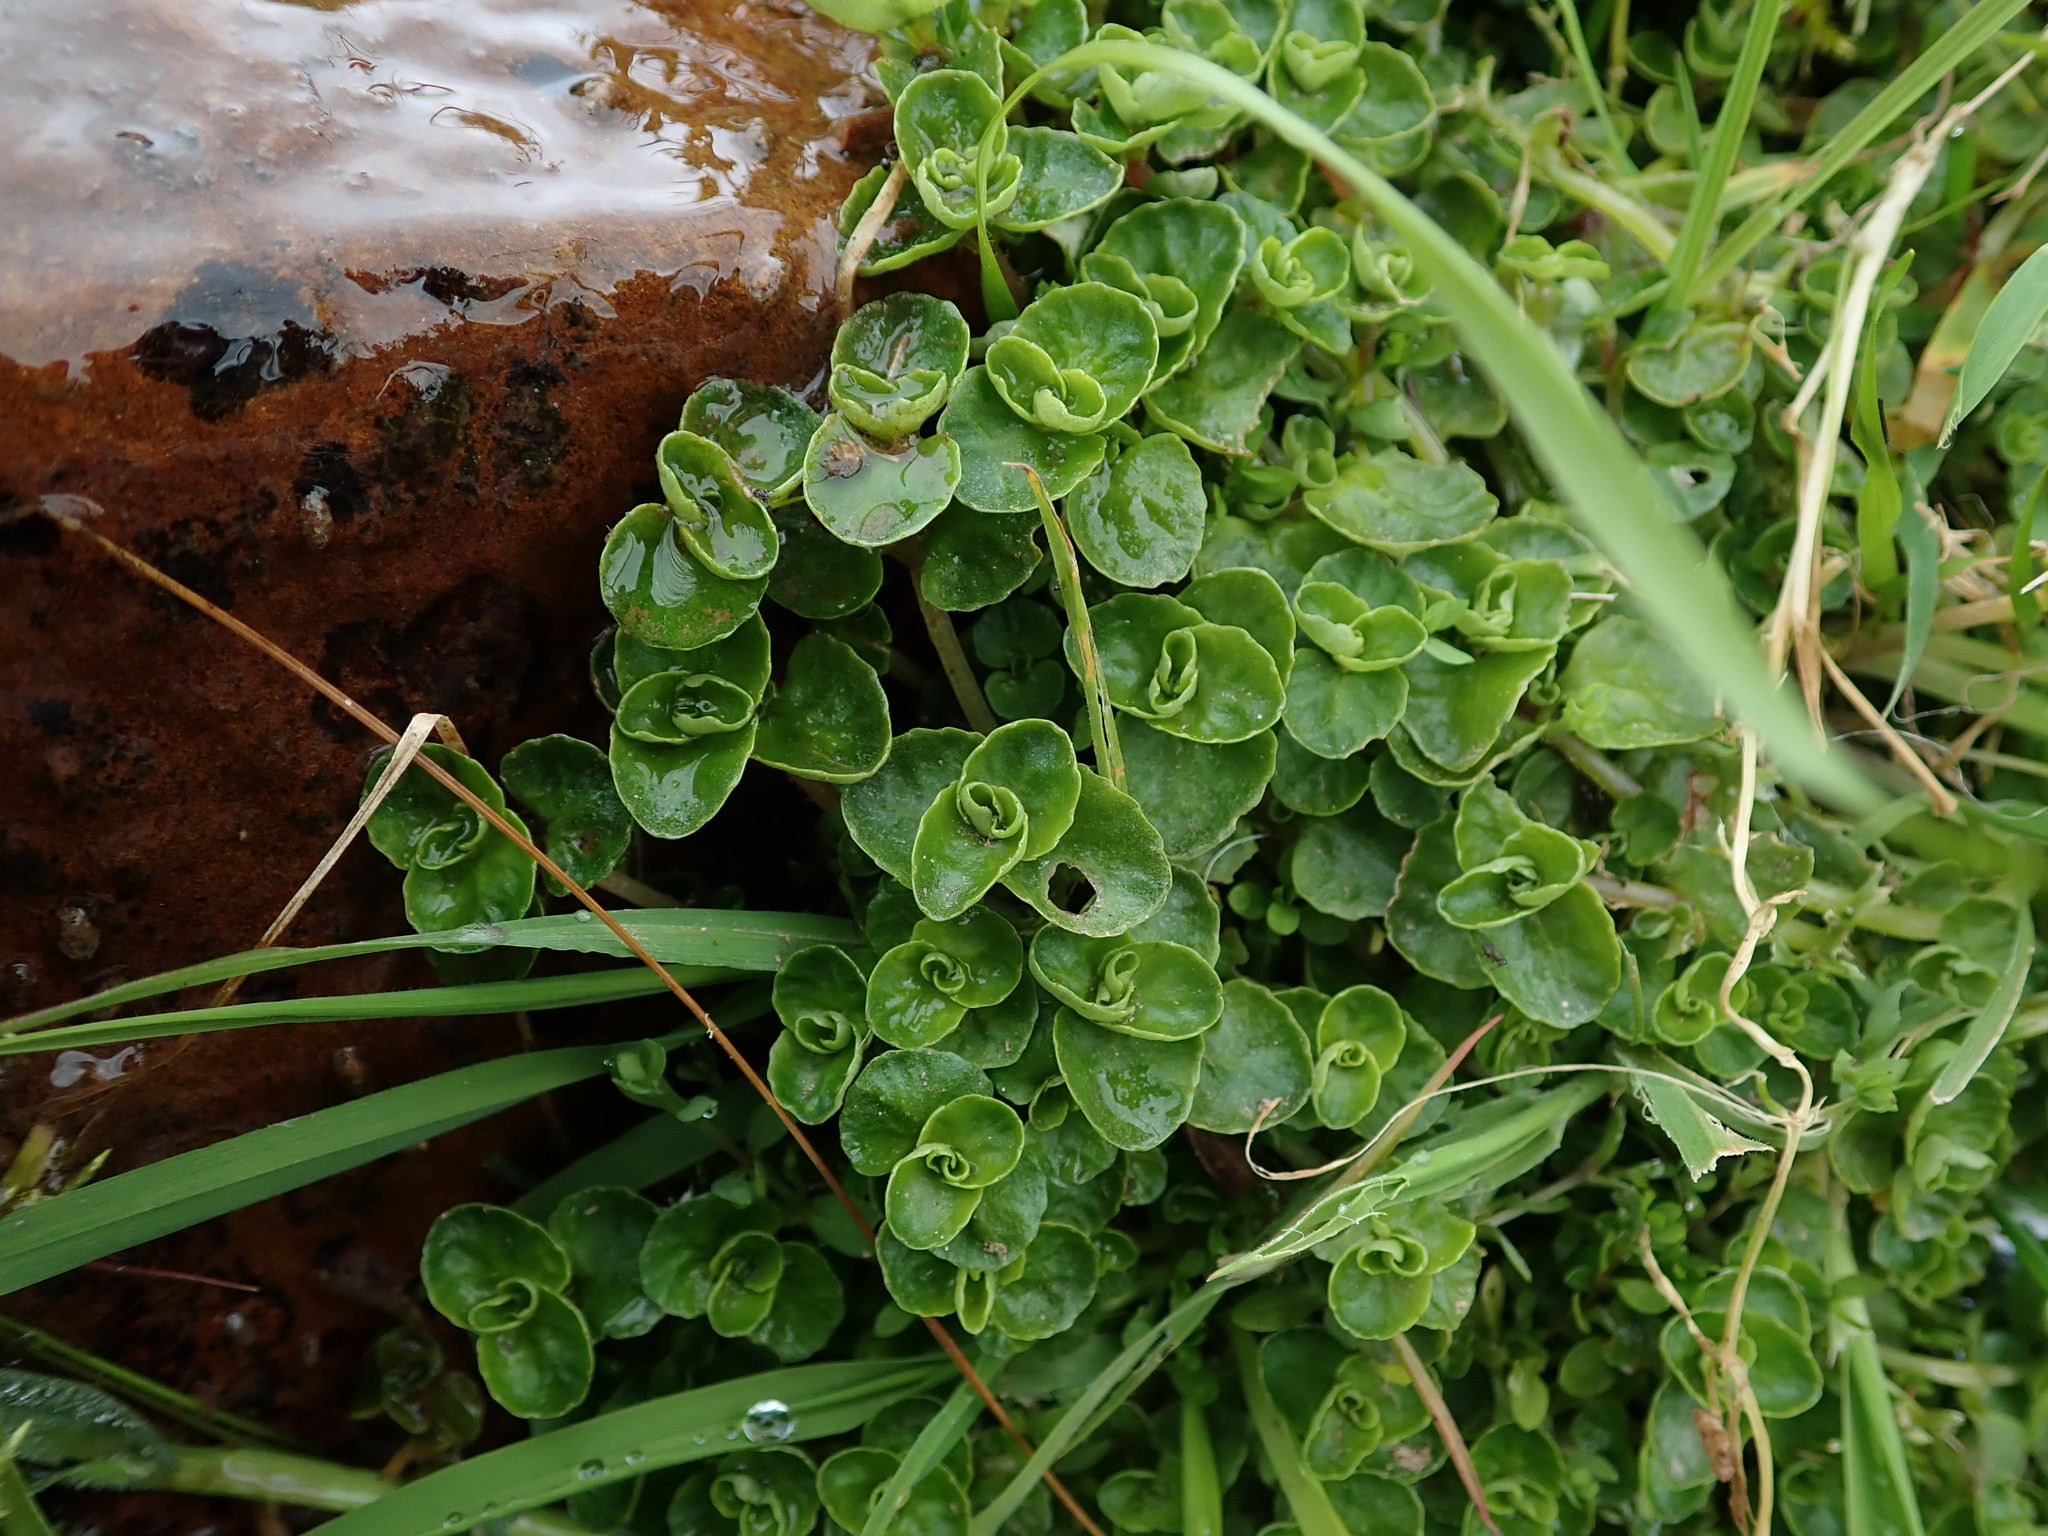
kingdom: Plantae
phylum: Tracheophyta
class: Magnoliopsida
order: Saxifragales
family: Saxifragaceae
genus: Chrysosplenium
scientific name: Chrysosplenium oppositifolium
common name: Opposite-leaved golden-saxifrage
